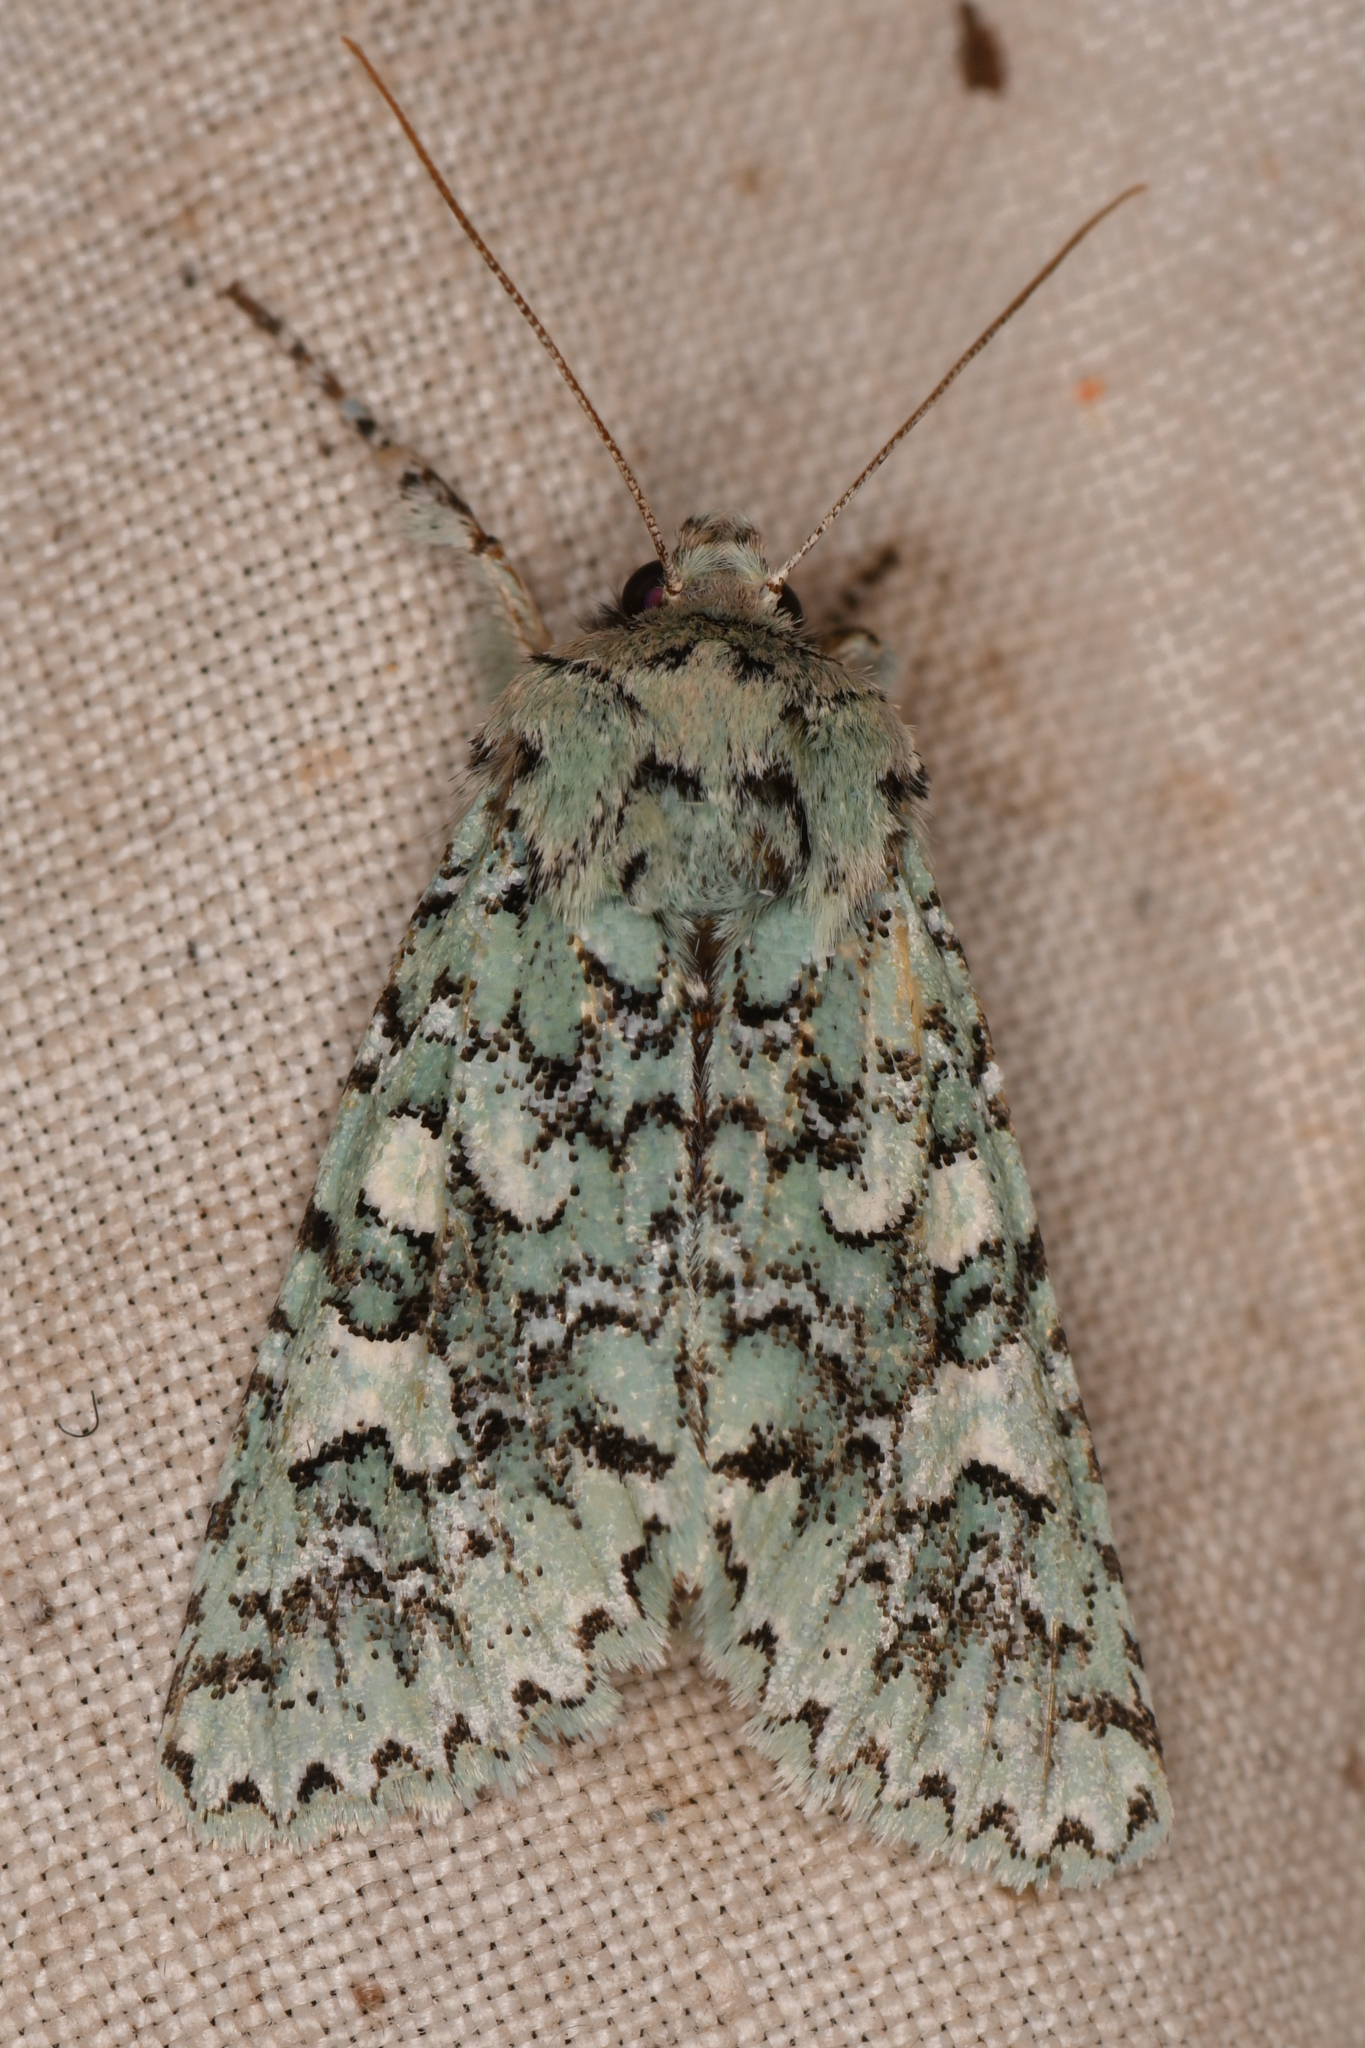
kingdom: Animalia
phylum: Arthropoda
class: Insecta
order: Lepidoptera
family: Noctuidae
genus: Feralia
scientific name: Feralia februalis
